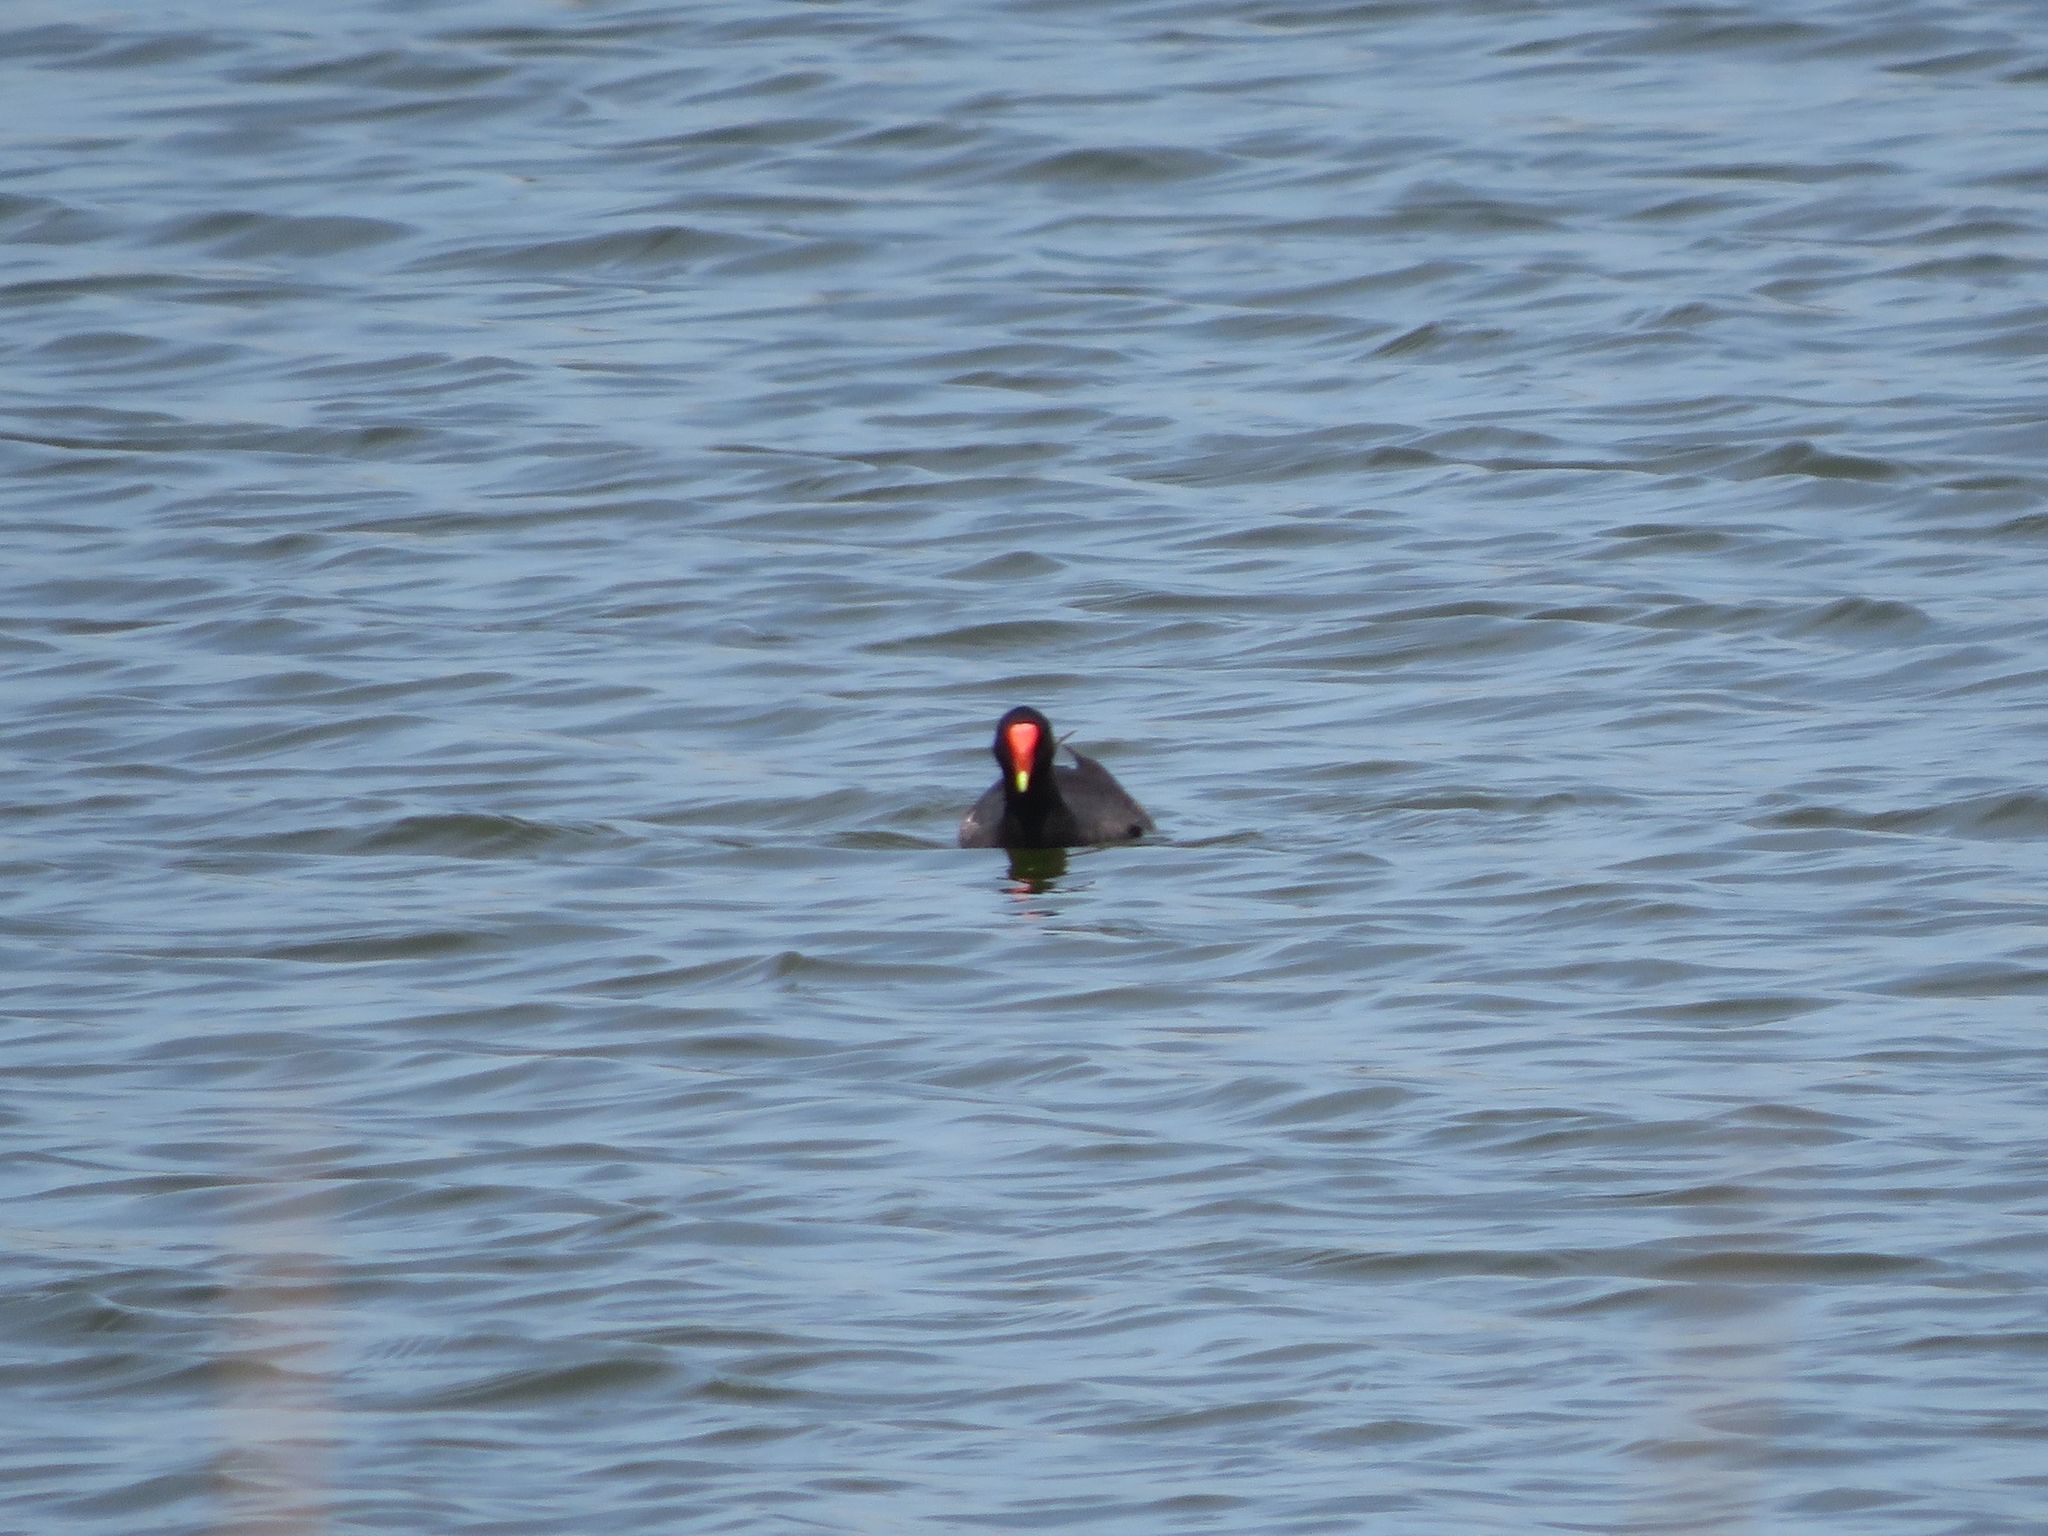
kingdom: Animalia
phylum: Chordata
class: Aves
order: Gruiformes
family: Rallidae
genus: Gallinula
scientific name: Gallinula chloropus
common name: Common moorhen
